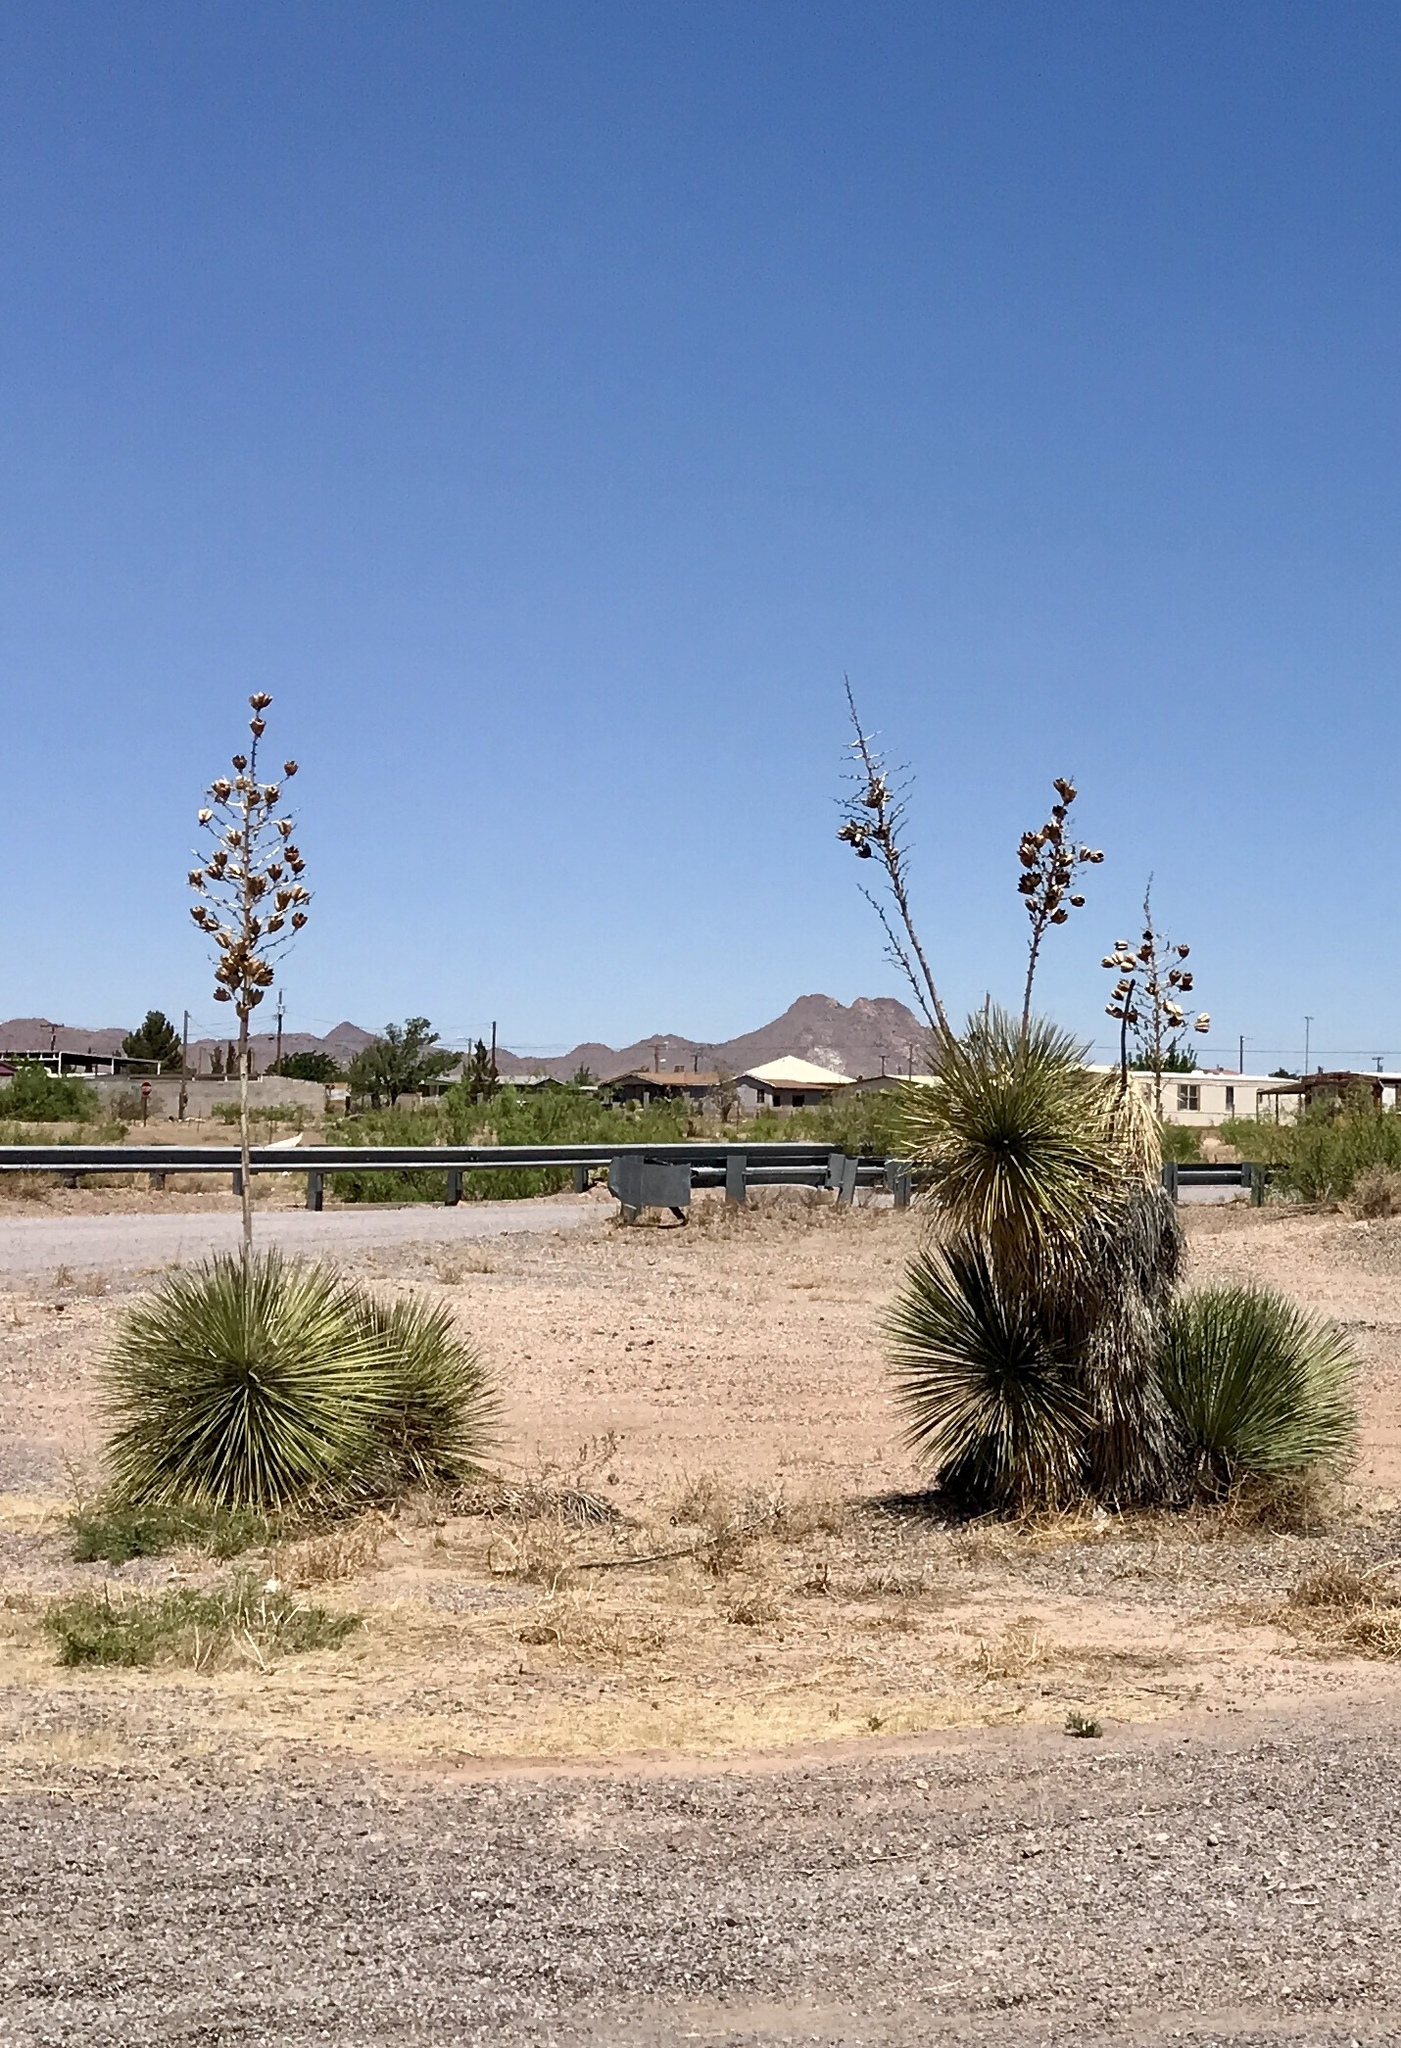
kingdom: Plantae
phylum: Tracheophyta
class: Liliopsida
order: Asparagales
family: Asparagaceae
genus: Yucca
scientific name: Yucca elata
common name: Palmella
